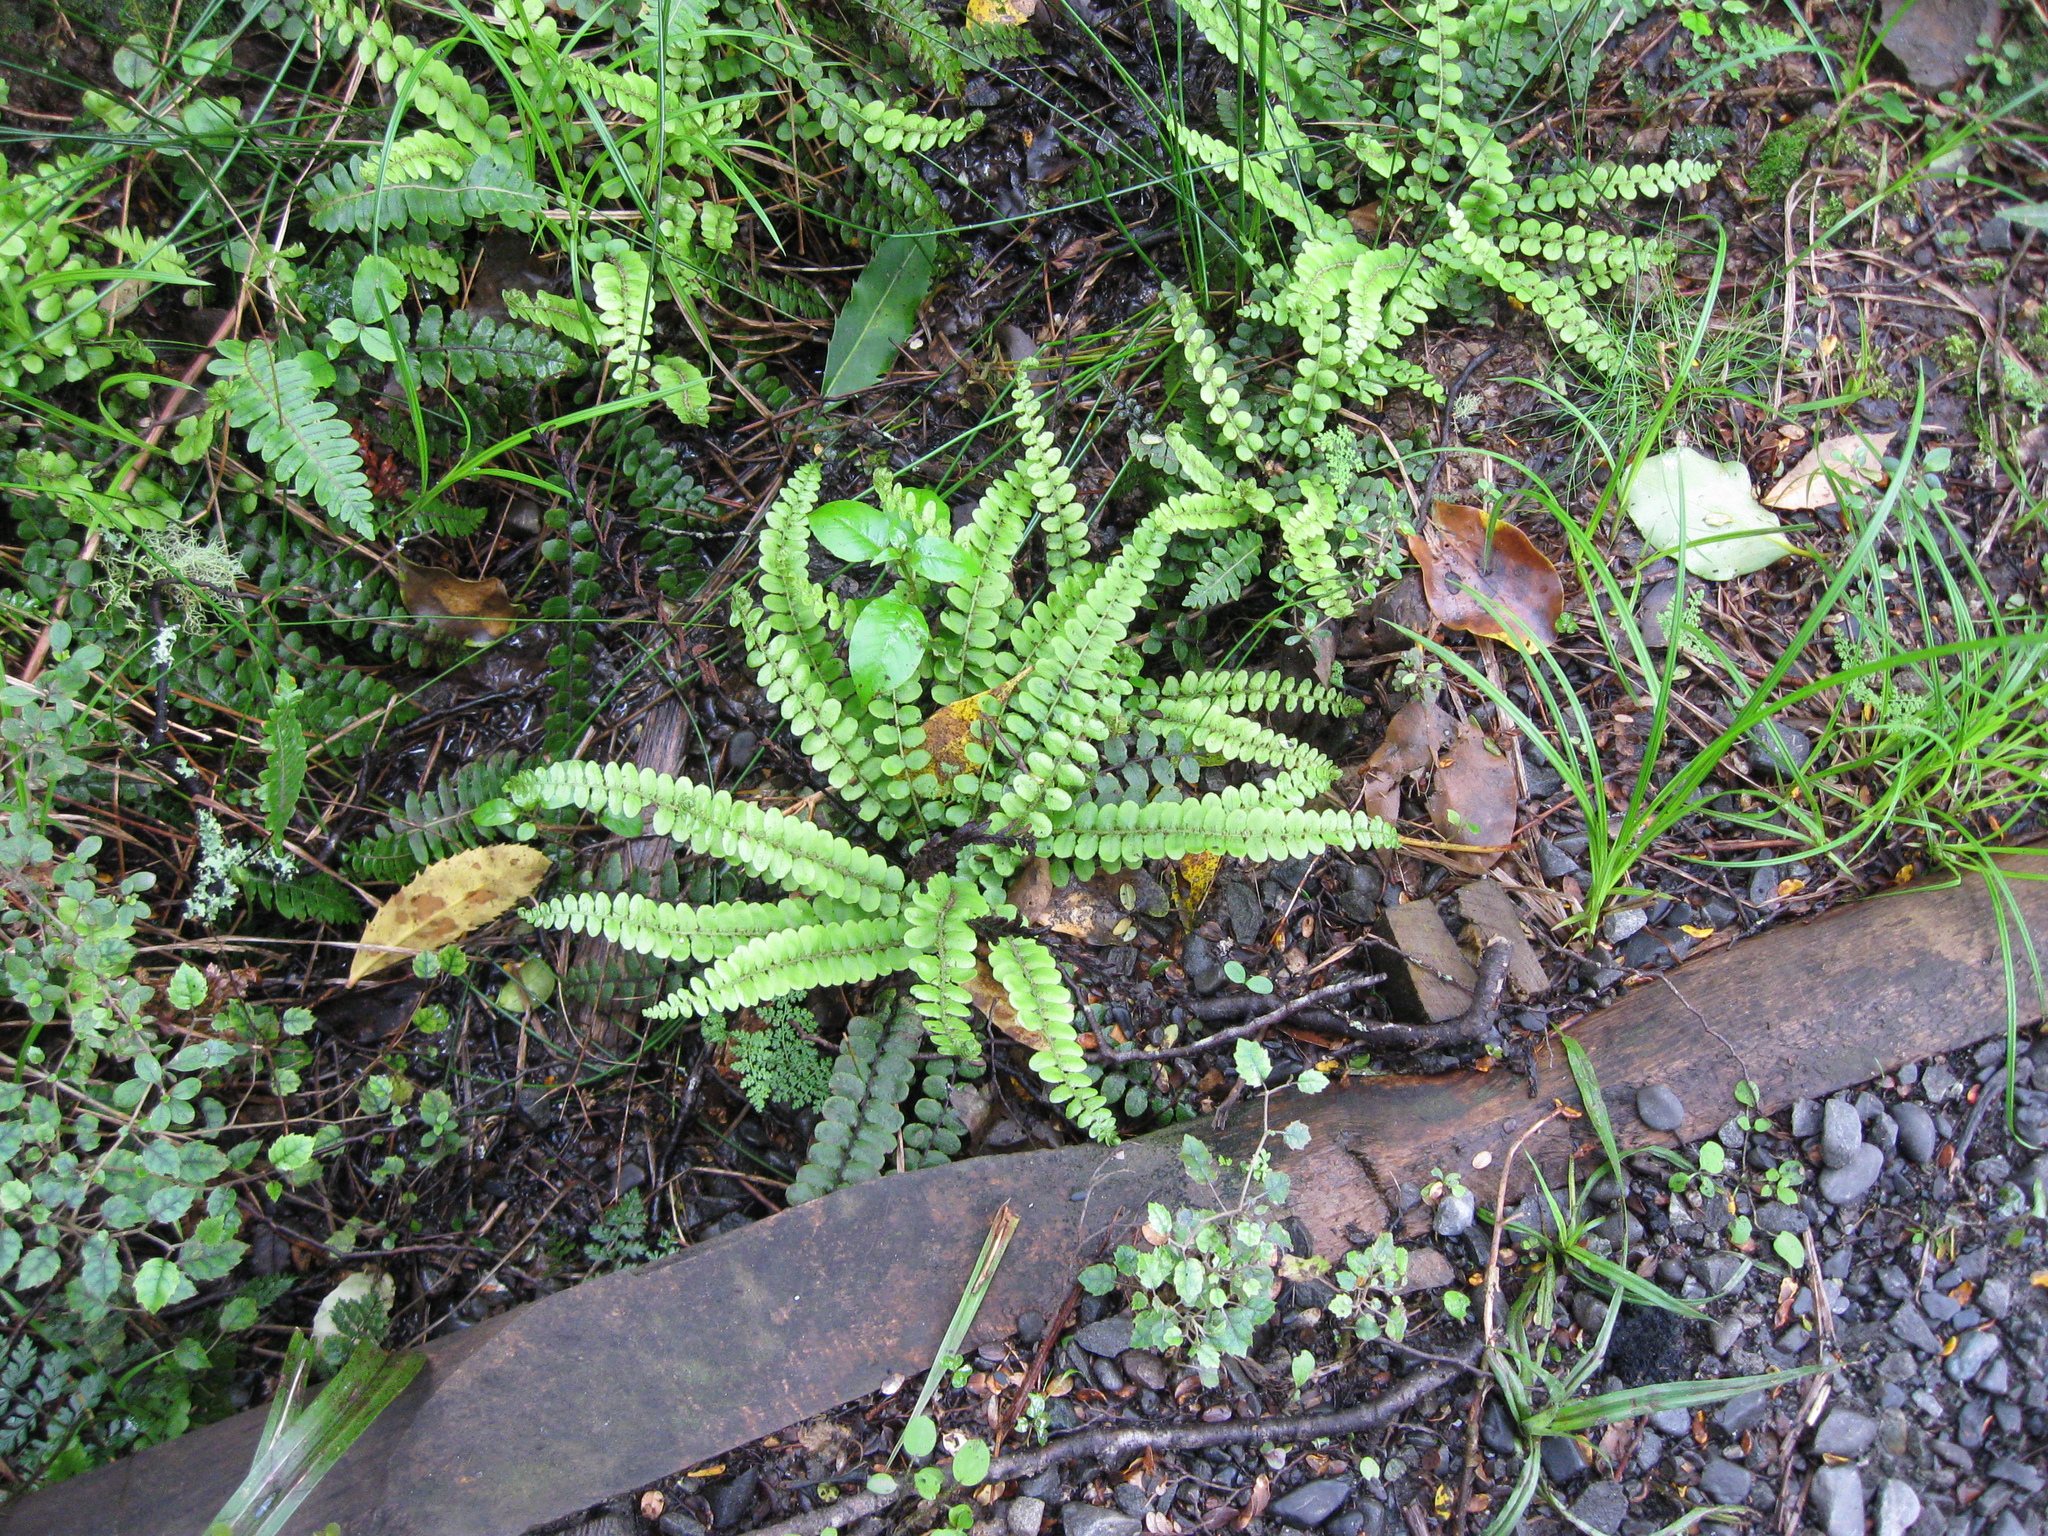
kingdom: Plantae
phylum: Tracheophyta
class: Polypodiopsida
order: Polypodiales
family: Blechnaceae
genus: Cranfillia
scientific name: Cranfillia fluviatilis
